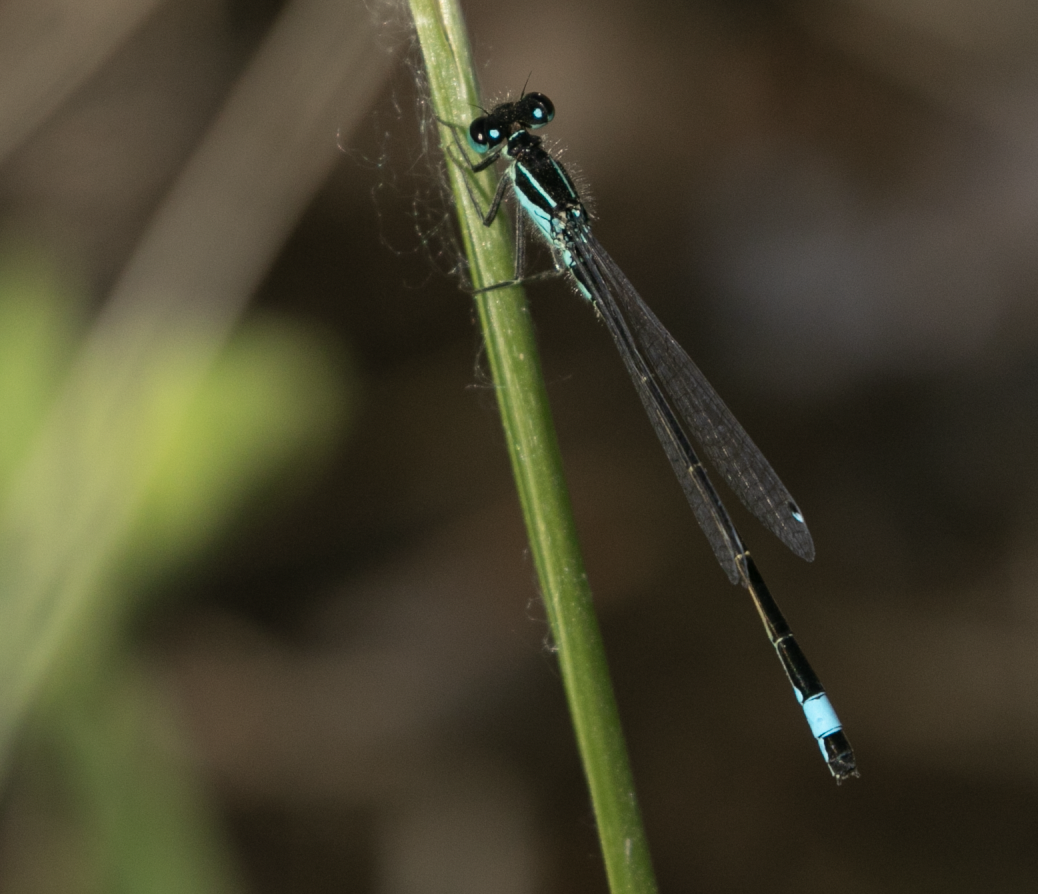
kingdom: Animalia
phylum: Arthropoda
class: Insecta
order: Odonata
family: Coenagrionidae
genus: Ischnura
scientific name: Ischnura elegans
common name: Blue-tailed damselfly
